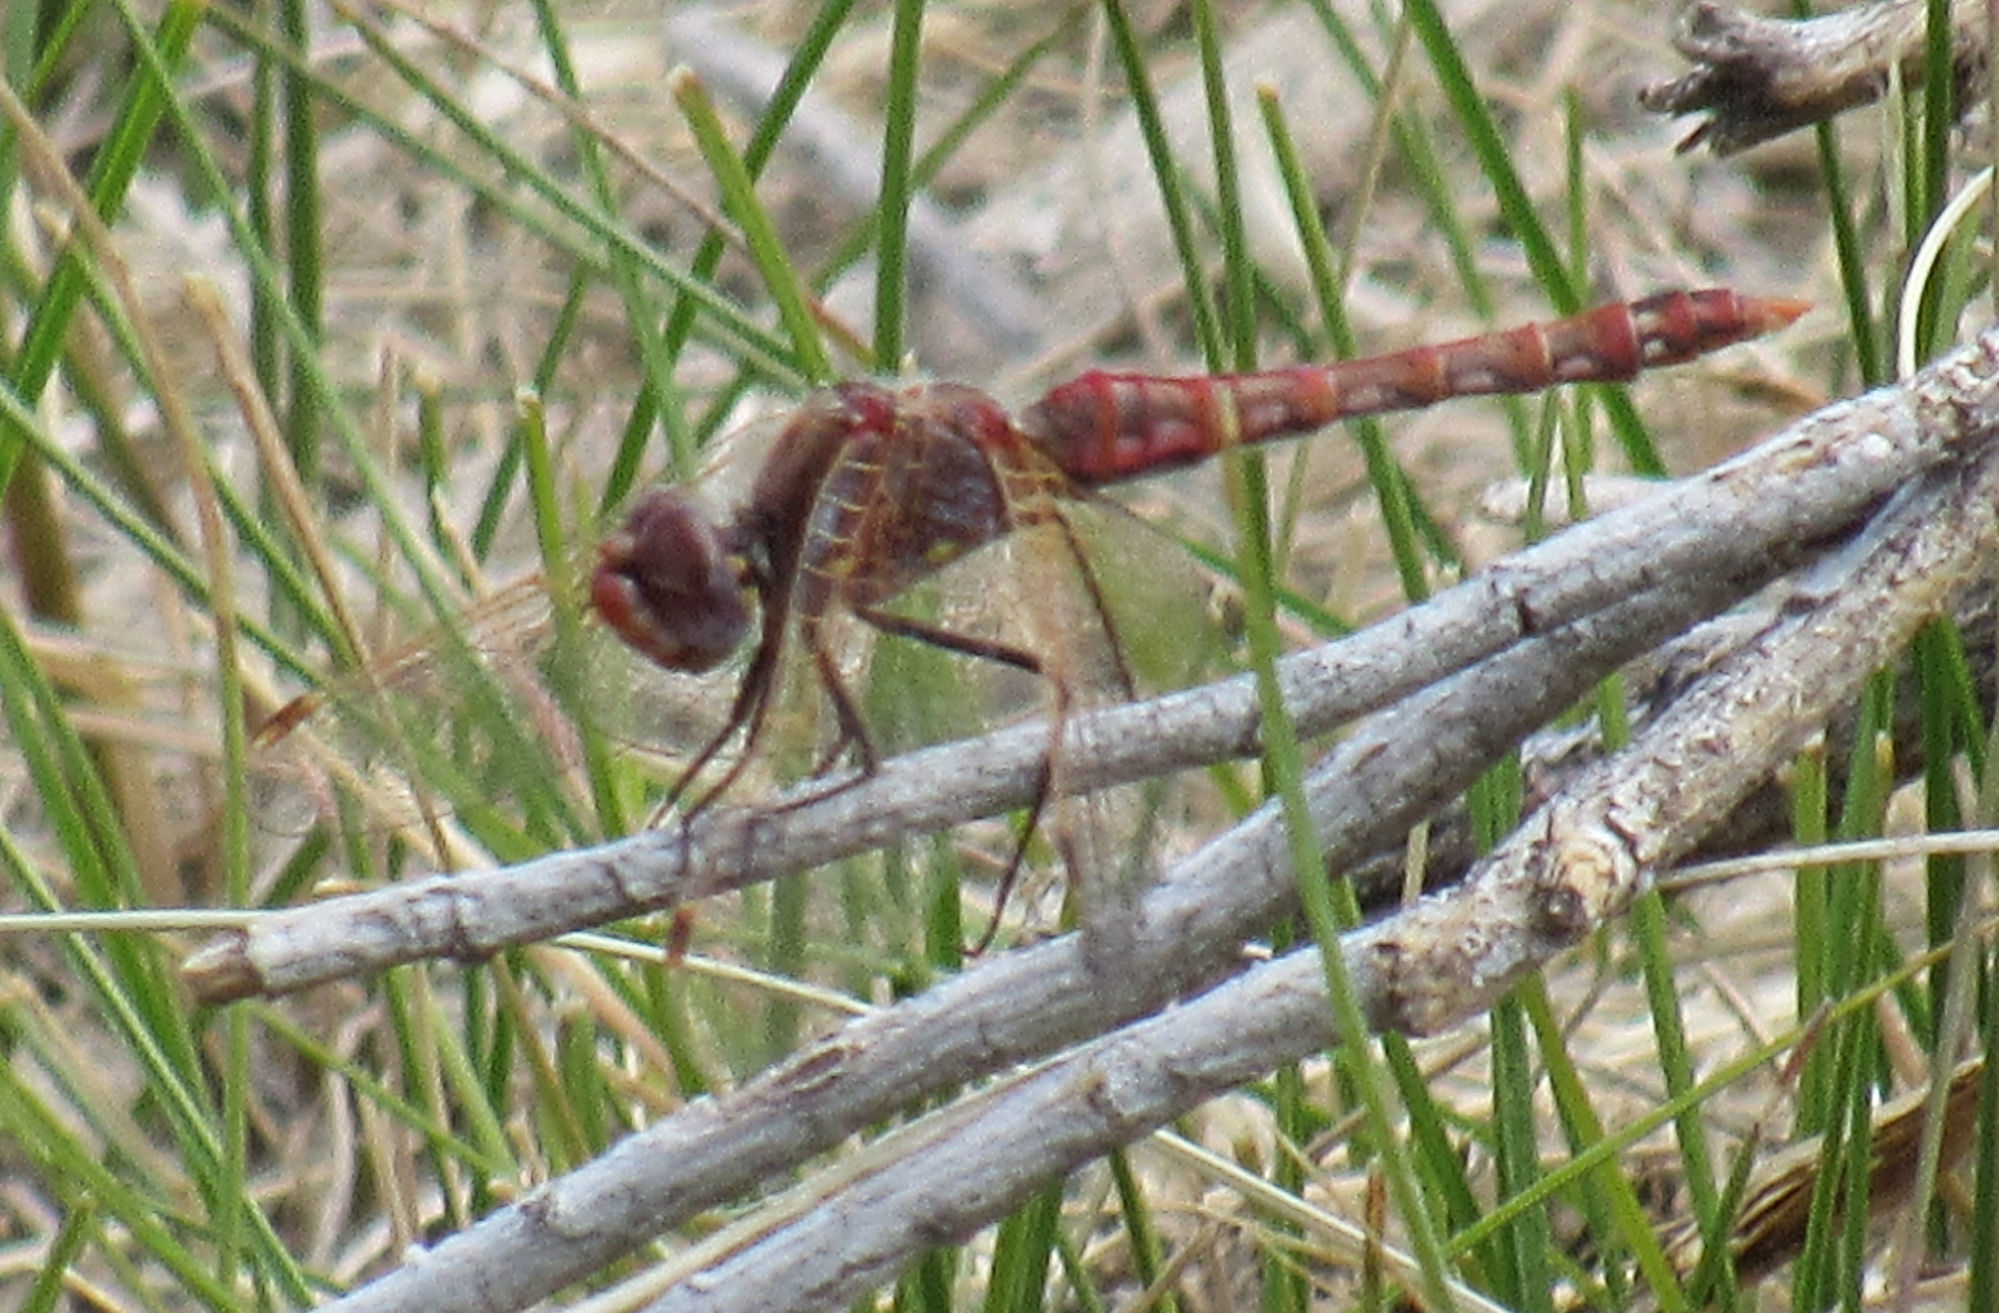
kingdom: Animalia
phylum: Arthropoda
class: Insecta
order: Odonata
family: Libellulidae
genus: Sympetrum
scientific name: Sympetrum corruptum
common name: Variegated meadowhawk
